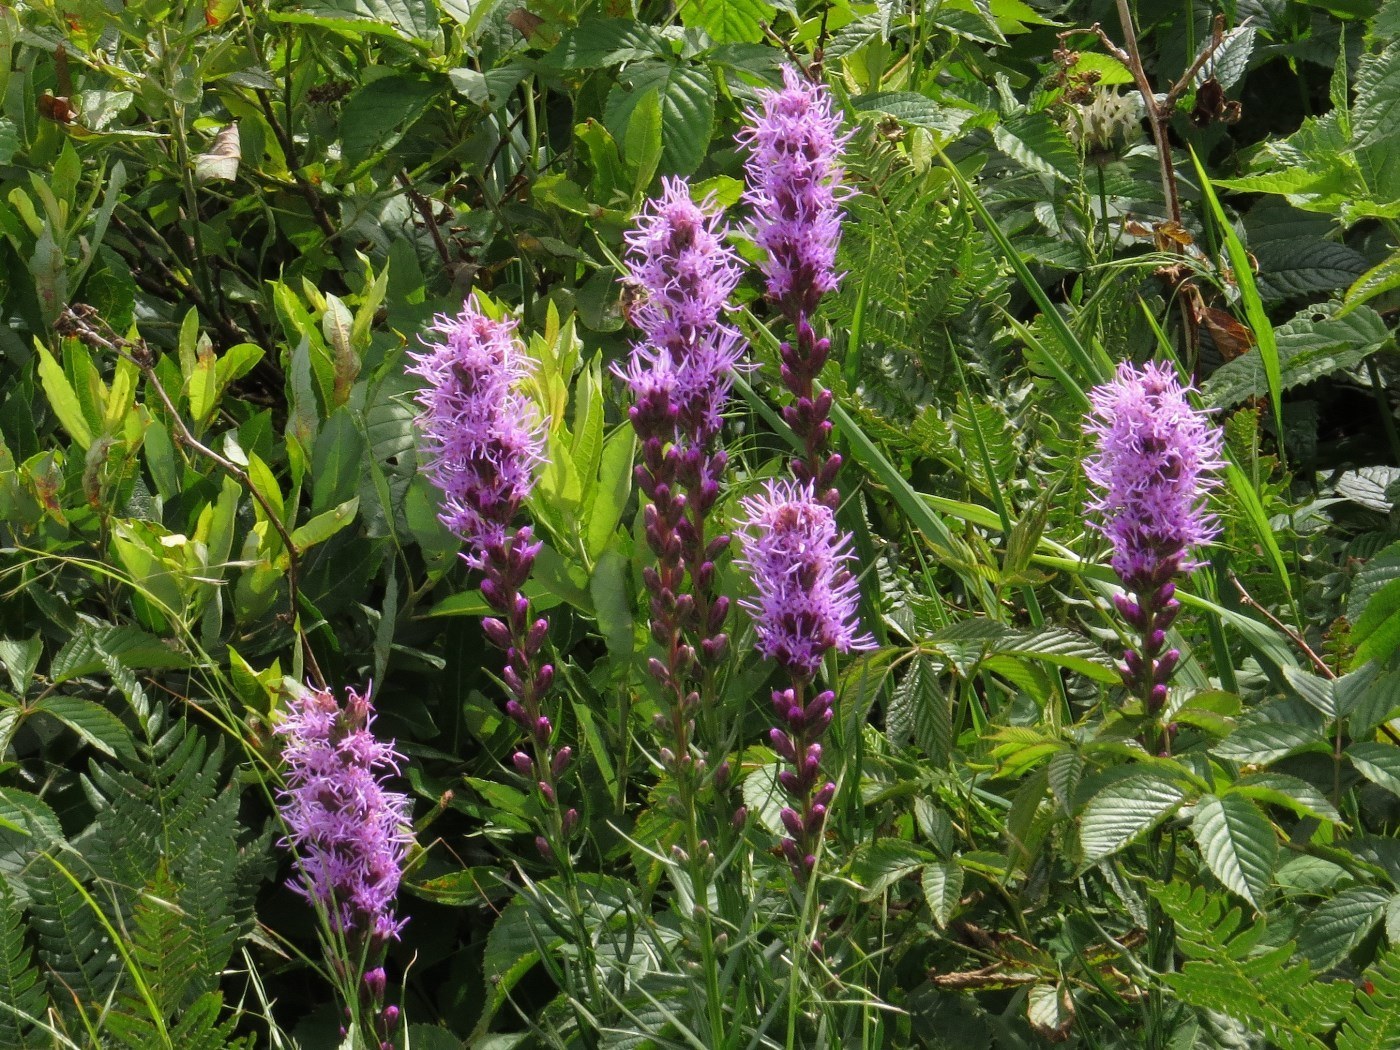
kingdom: Plantae
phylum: Tracheophyta
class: Magnoliopsida
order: Asterales
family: Asteraceae
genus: Liatris
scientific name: Liatris spicata
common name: Florist gayfeather
